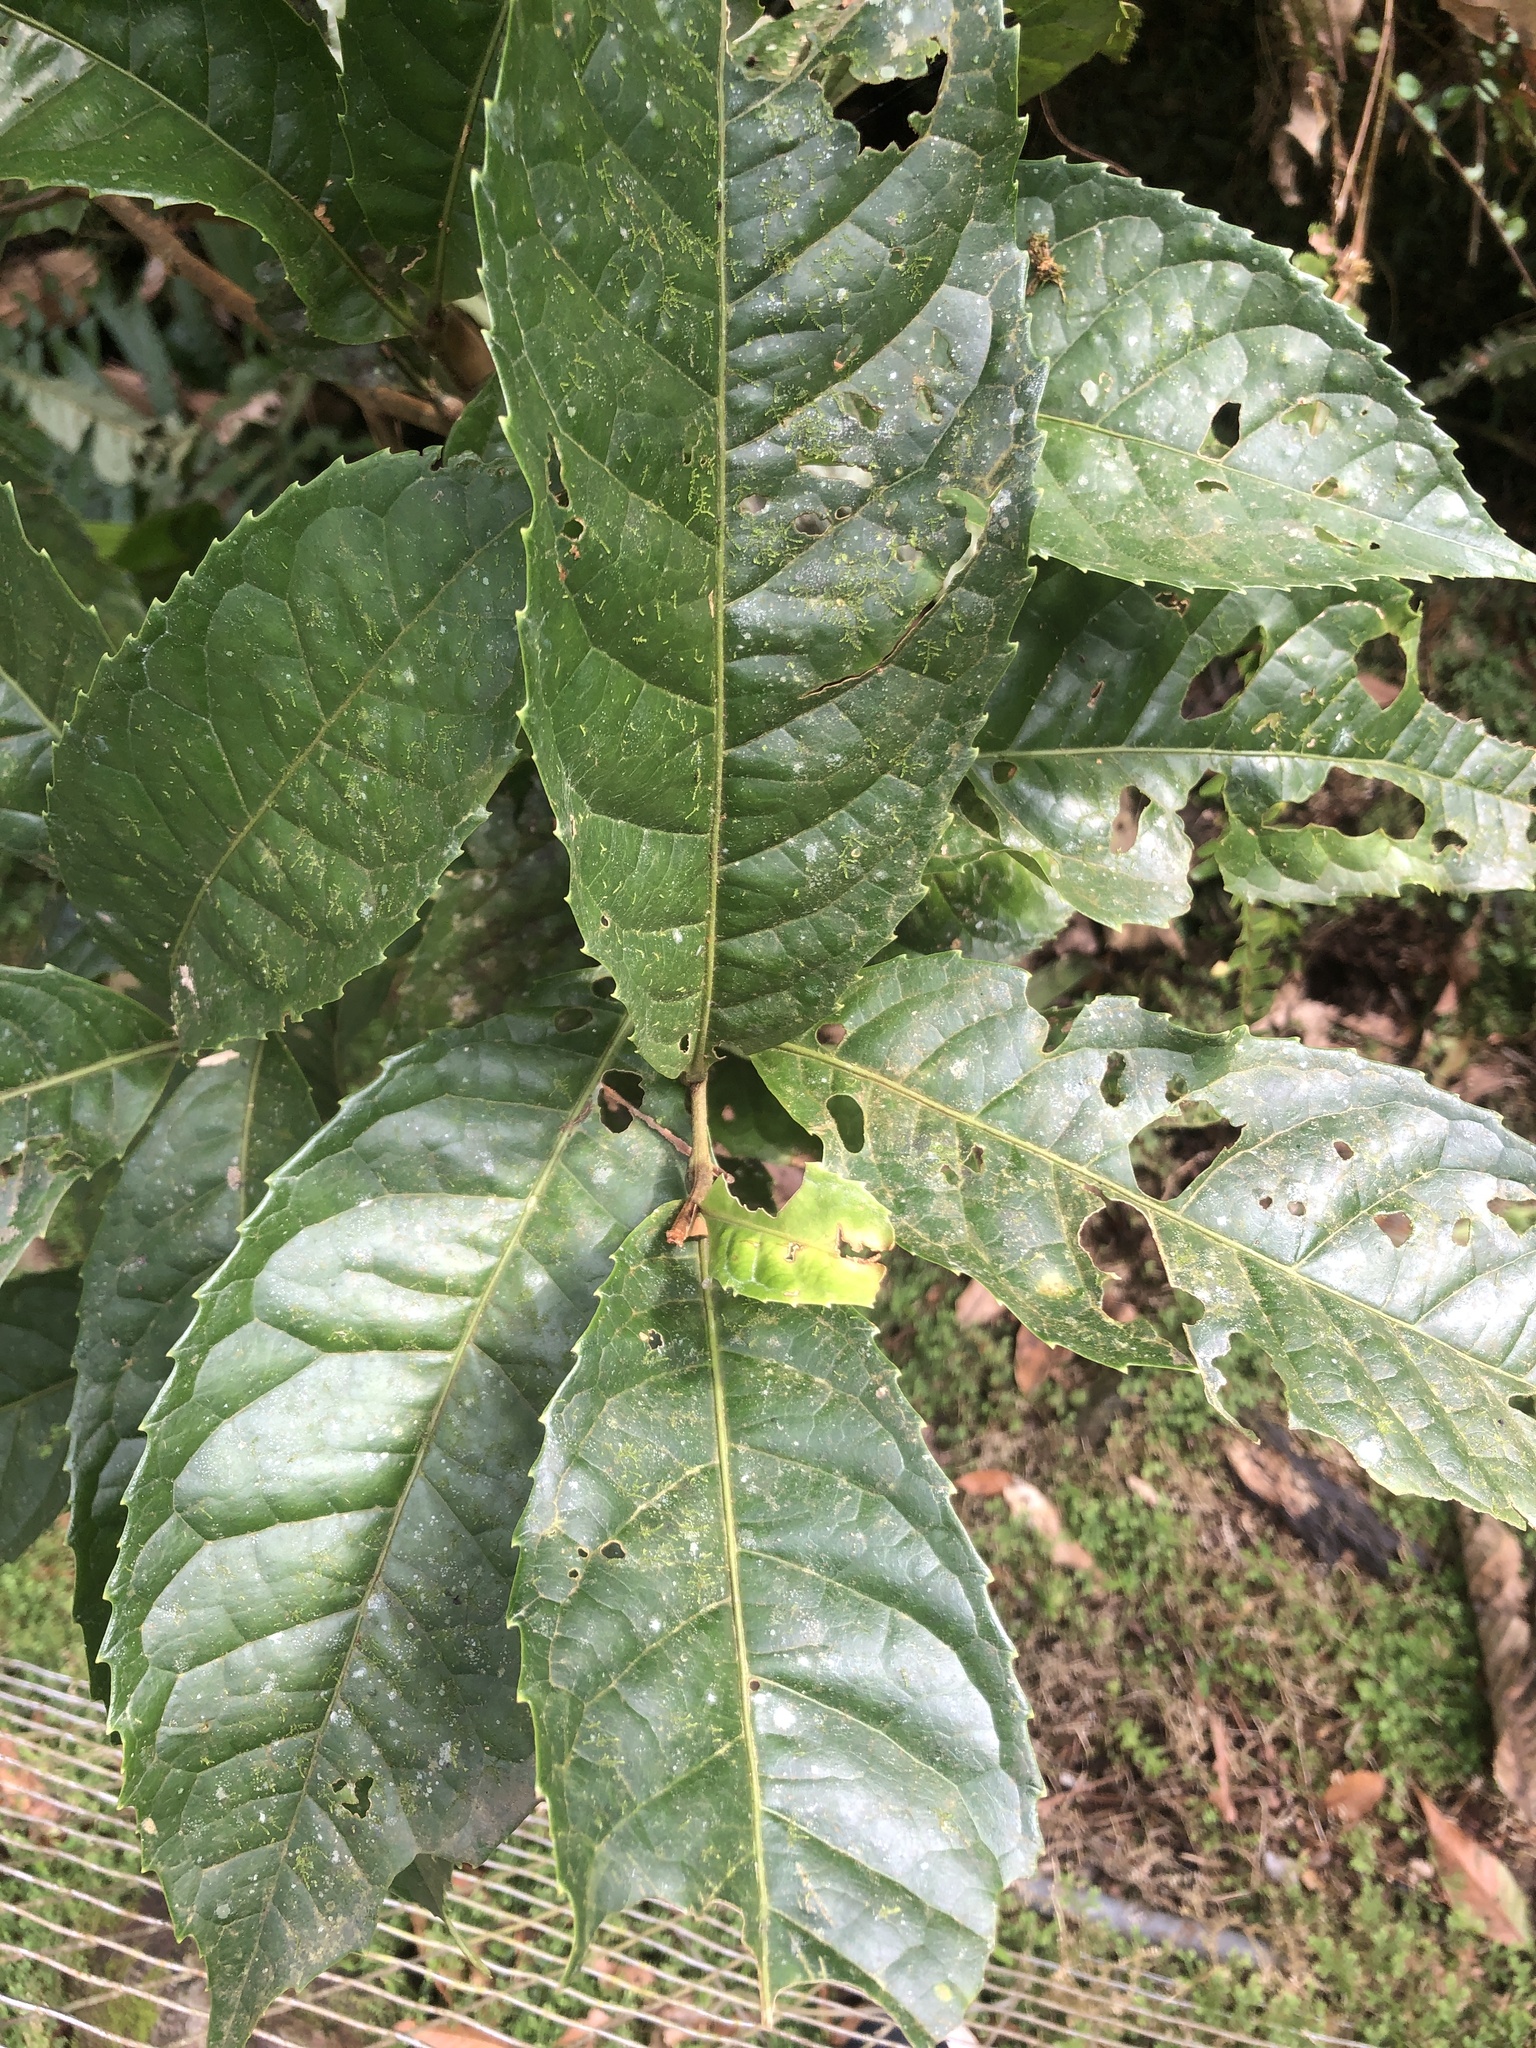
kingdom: Plantae
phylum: Tracheophyta
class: Magnoliopsida
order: Proteales
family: Proteaceae
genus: Helicia
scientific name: Helicia formosana
